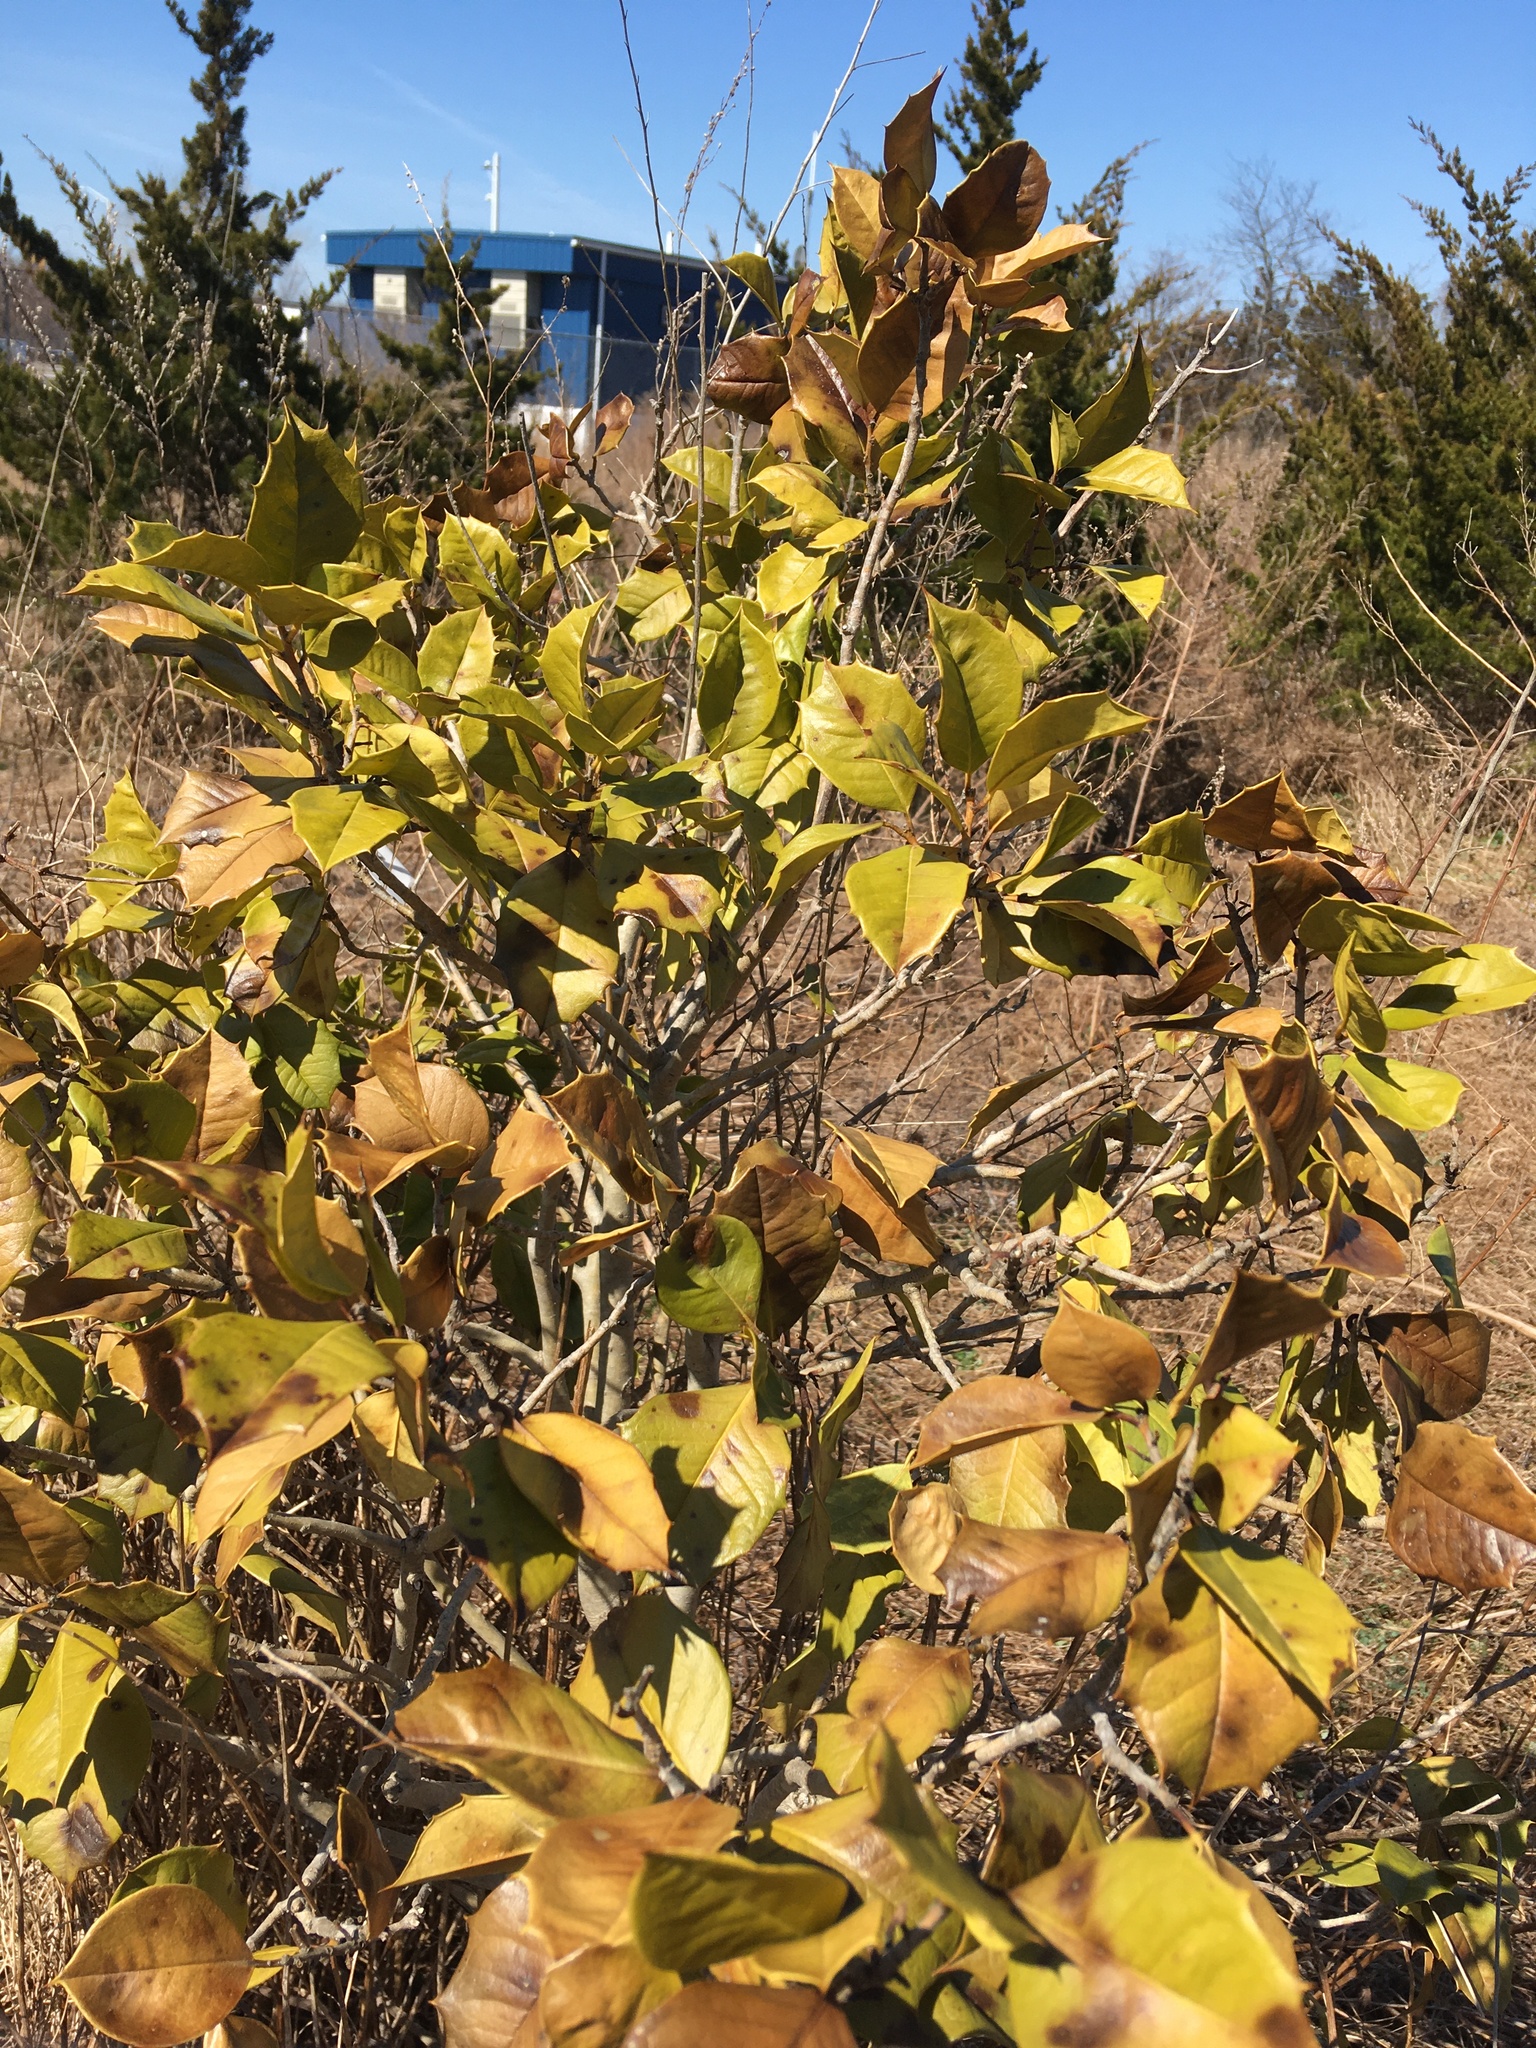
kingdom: Plantae
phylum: Tracheophyta
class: Magnoliopsida
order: Aquifoliales
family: Aquifoliaceae
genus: Ilex
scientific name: Ilex opaca
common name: American holly
